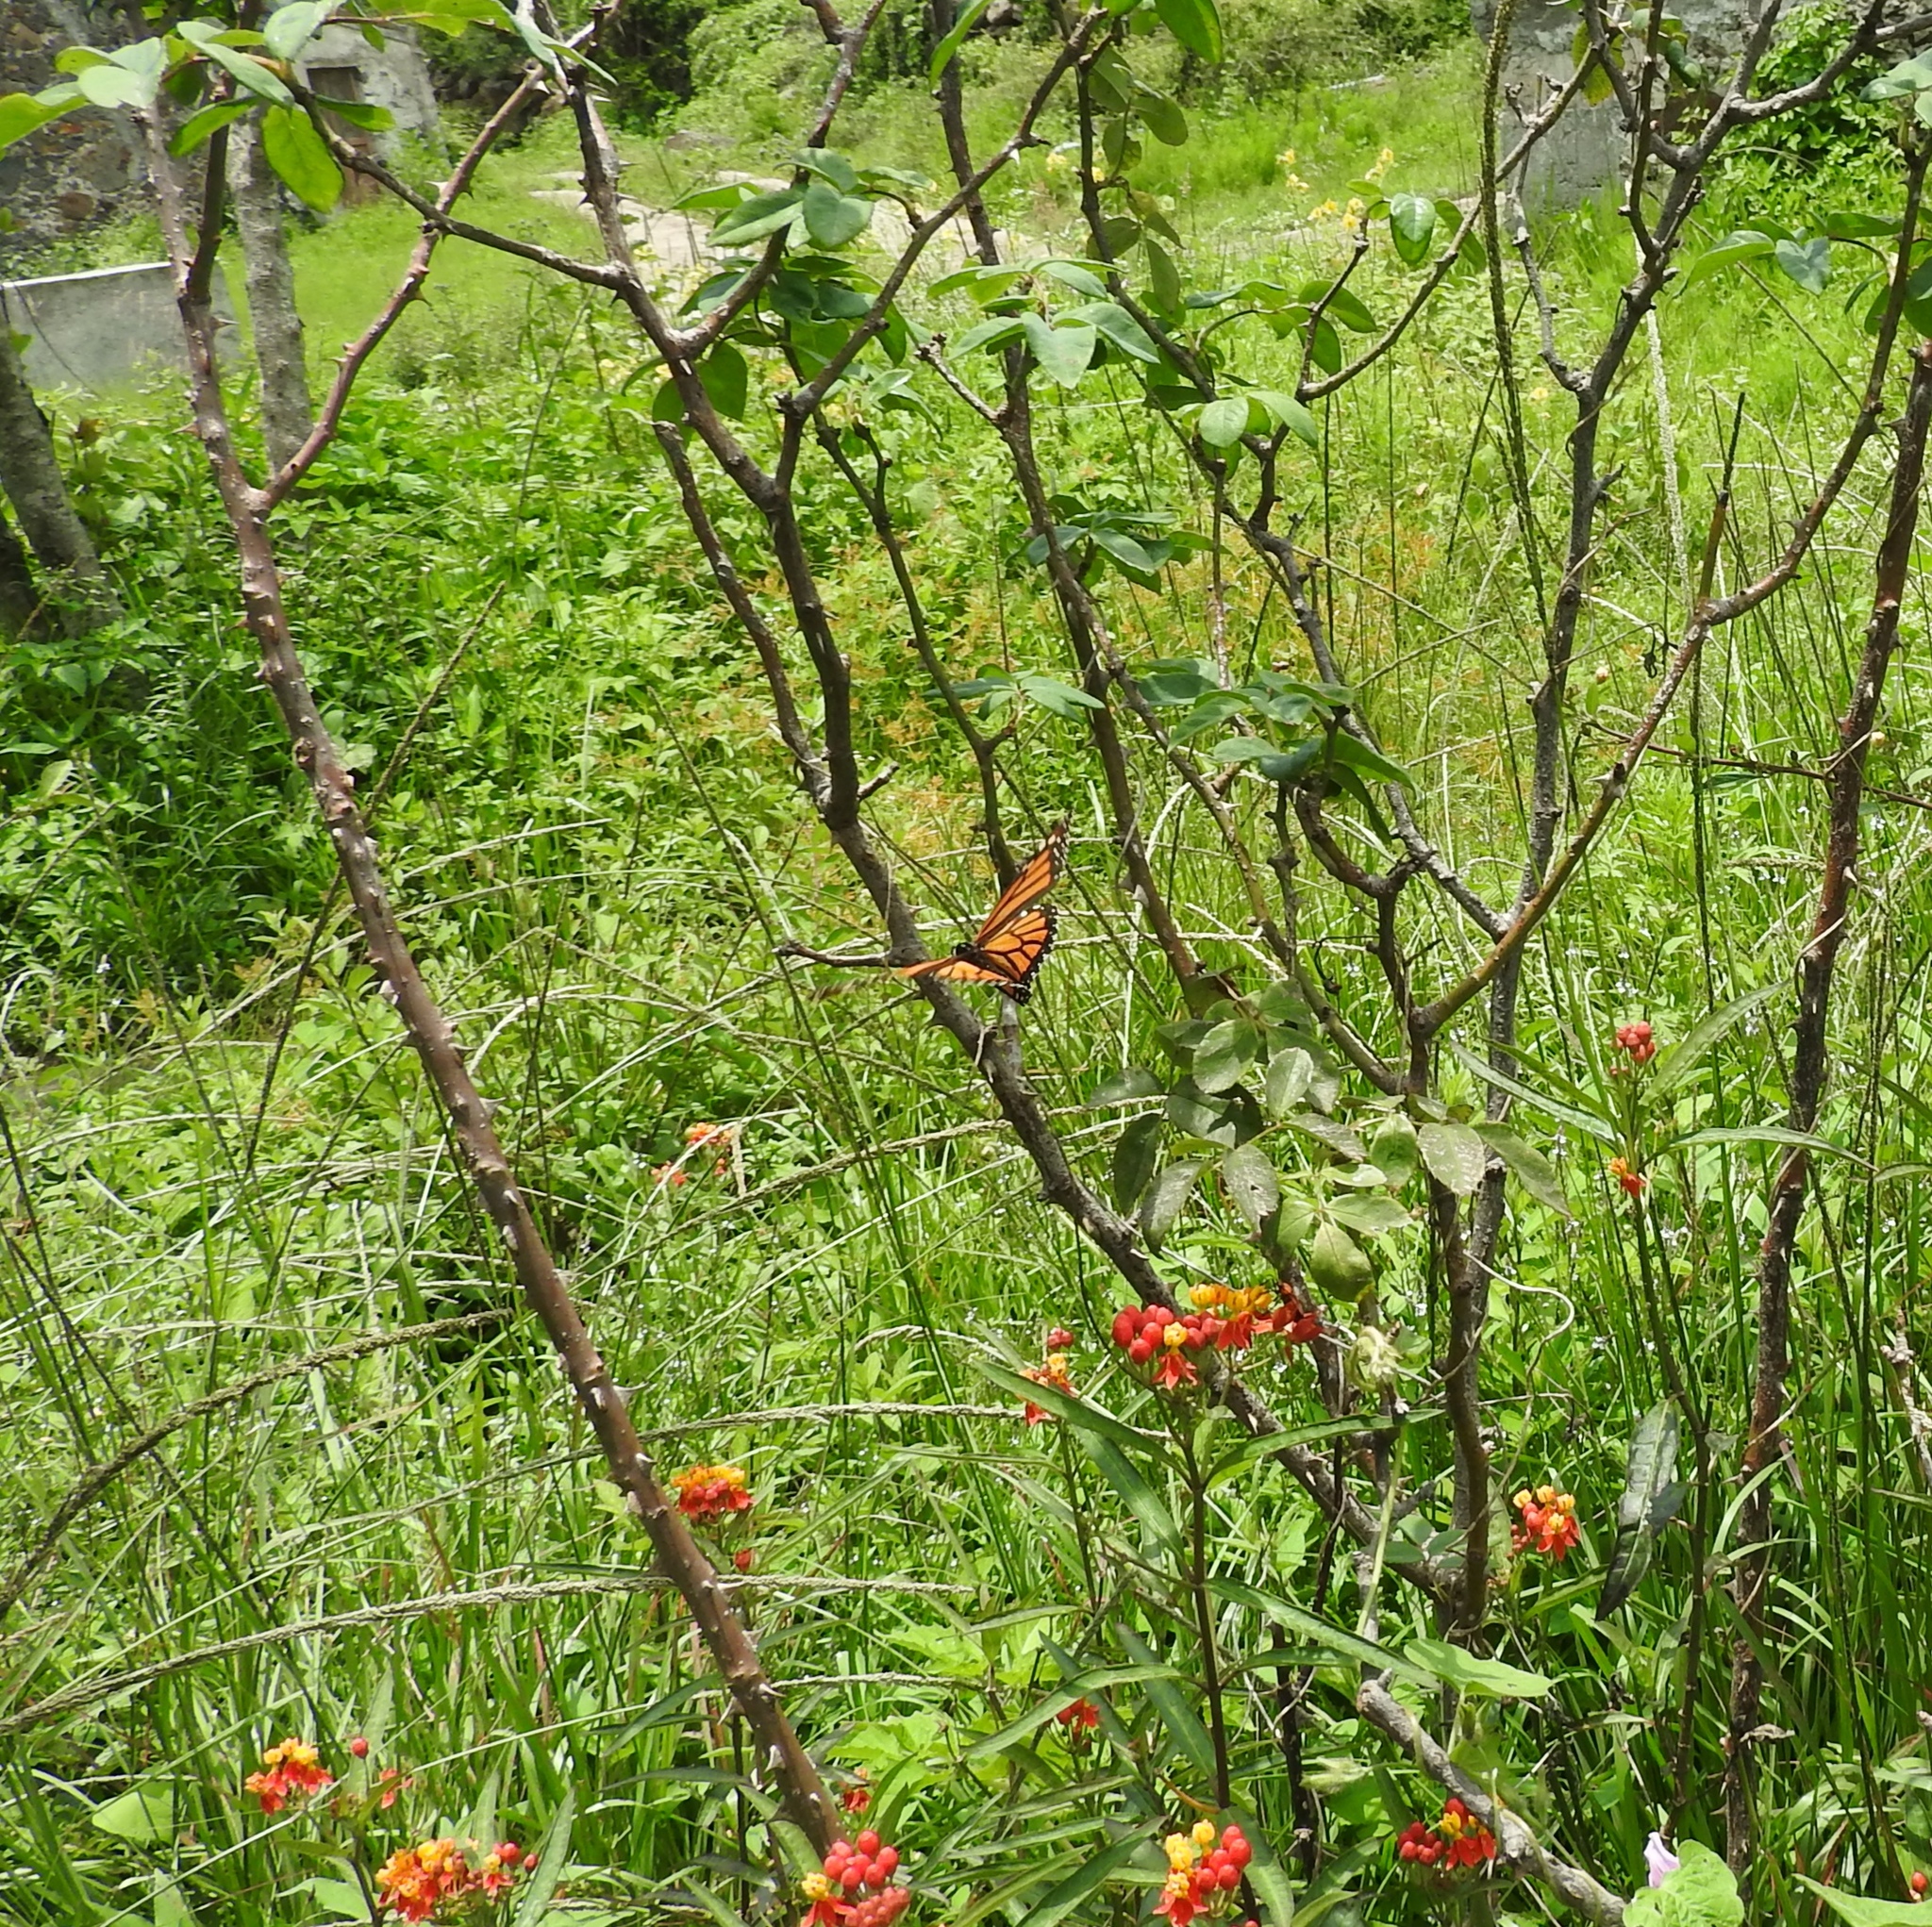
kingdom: Animalia
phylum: Arthropoda
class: Insecta
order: Lepidoptera
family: Nymphalidae
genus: Danaus
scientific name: Danaus plexippus
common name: Monarch
